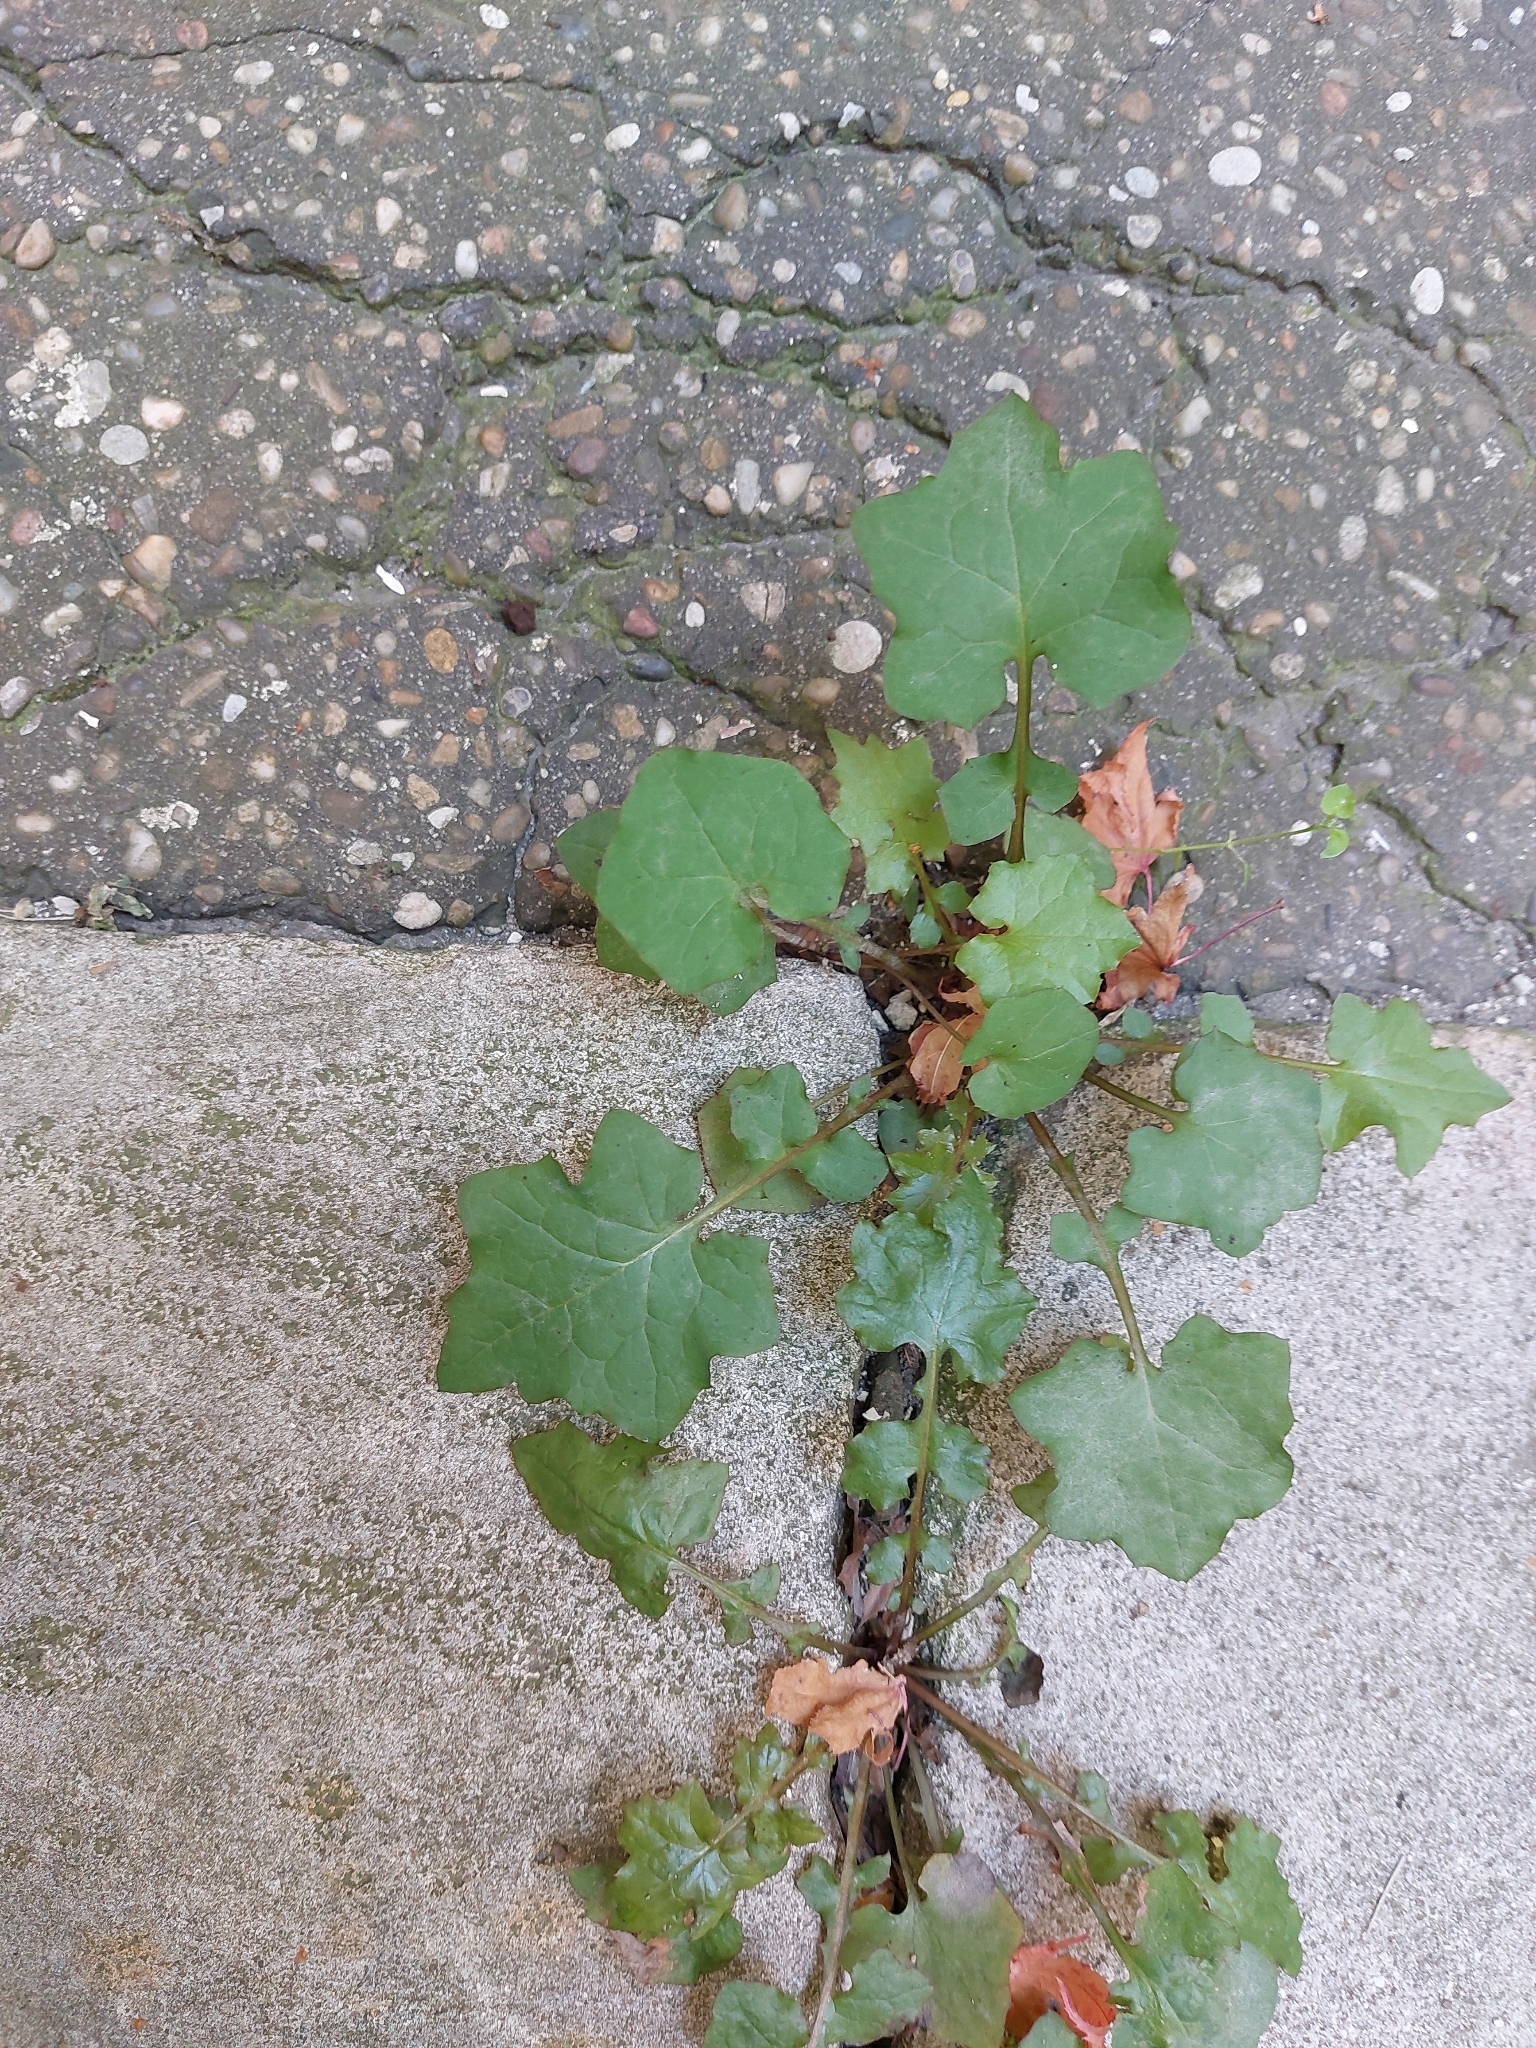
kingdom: Plantae
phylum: Tracheophyta
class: Magnoliopsida
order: Asterales
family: Asteraceae
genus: Mycelis
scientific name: Mycelis muralis
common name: Wall lettuce
